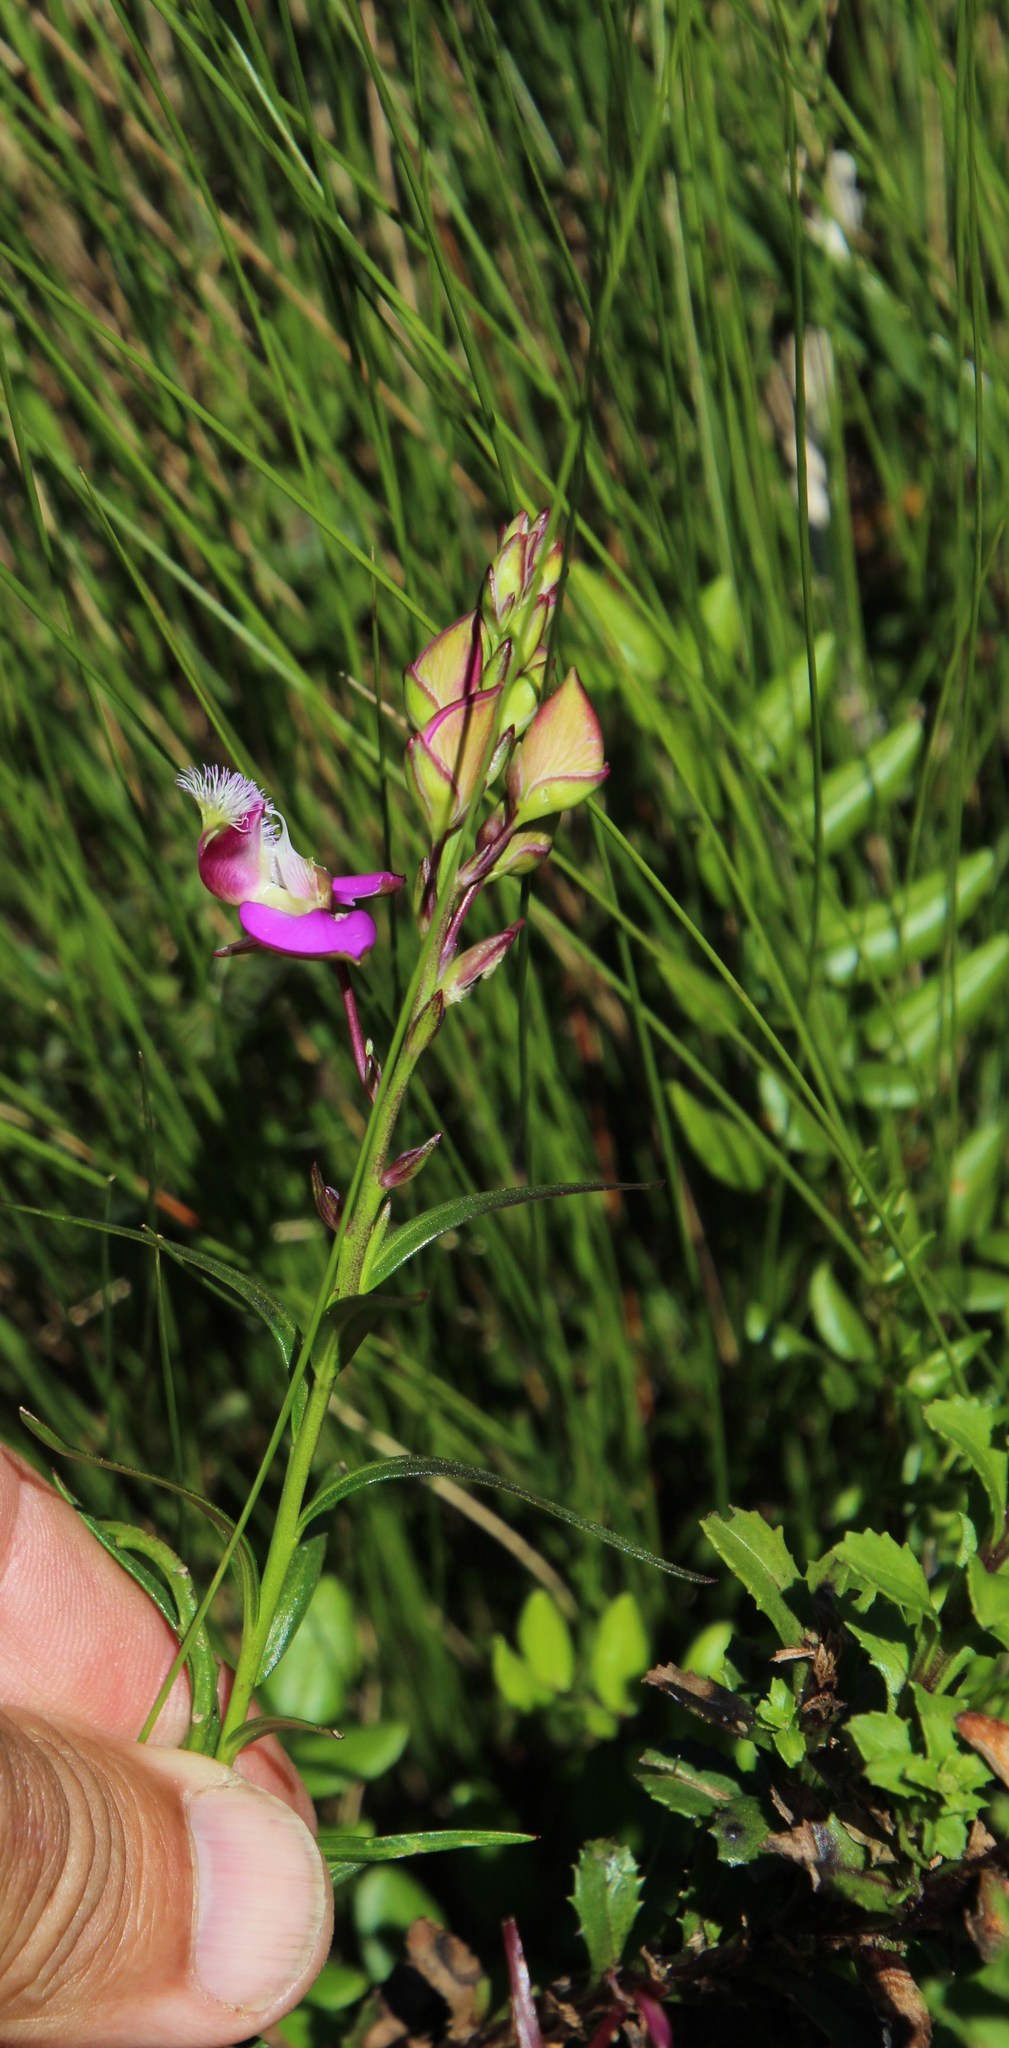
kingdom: Plantae
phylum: Tracheophyta
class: Magnoliopsida
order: Fabales
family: Polygalaceae
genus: Polygala
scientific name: Polygala bracteolata
